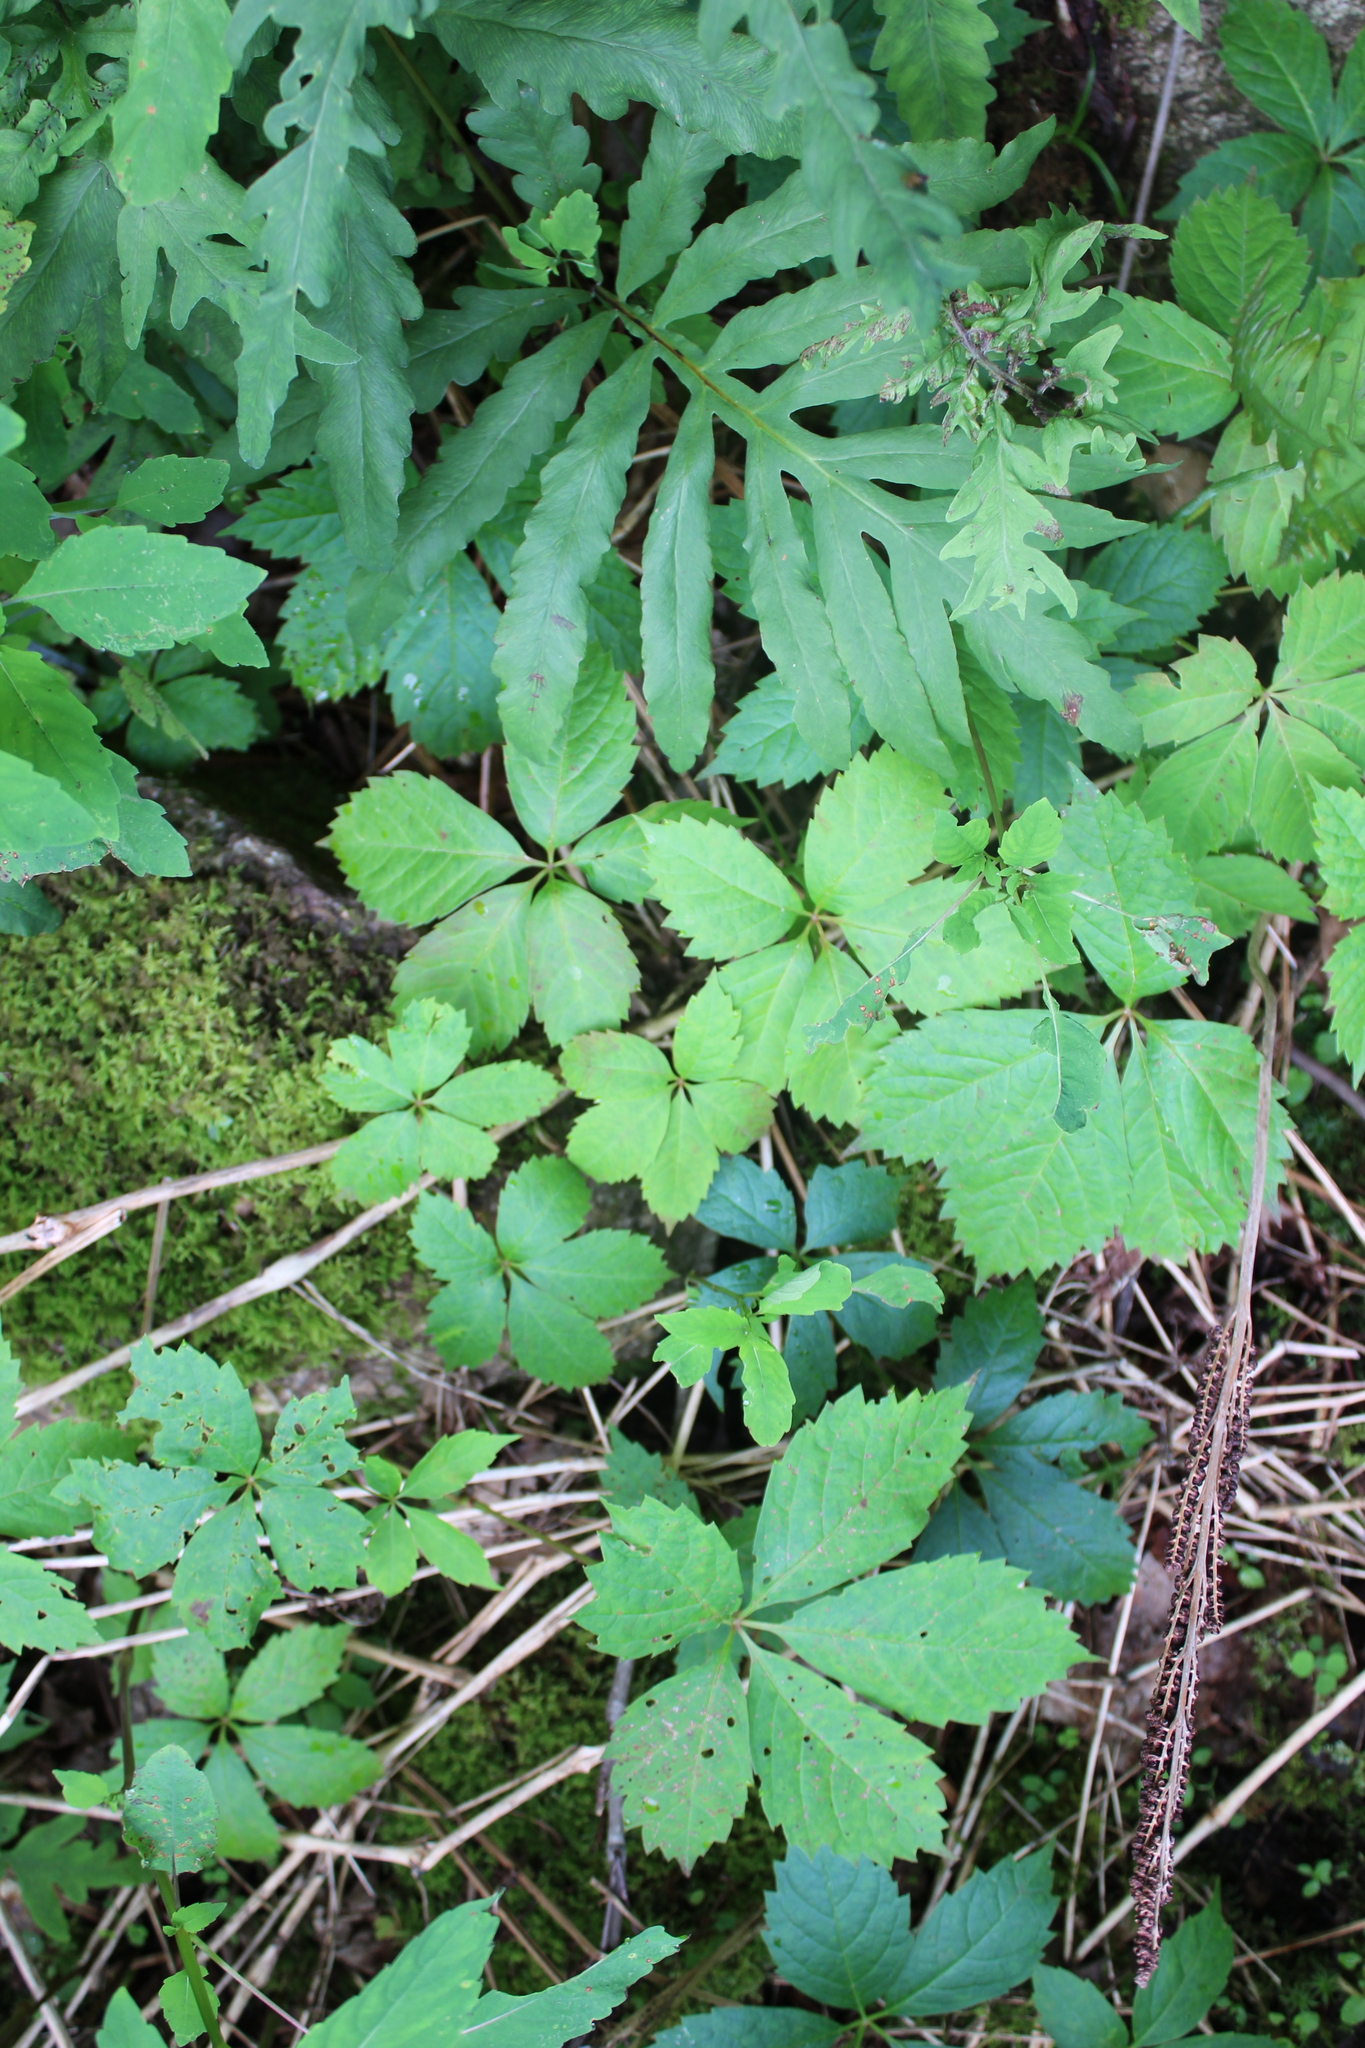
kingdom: Plantae
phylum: Tracheophyta
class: Magnoliopsida
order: Vitales
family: Vitaceae
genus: Parthenocissus
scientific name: Parthenocissus quinquefolia
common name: Virginia-creeper
